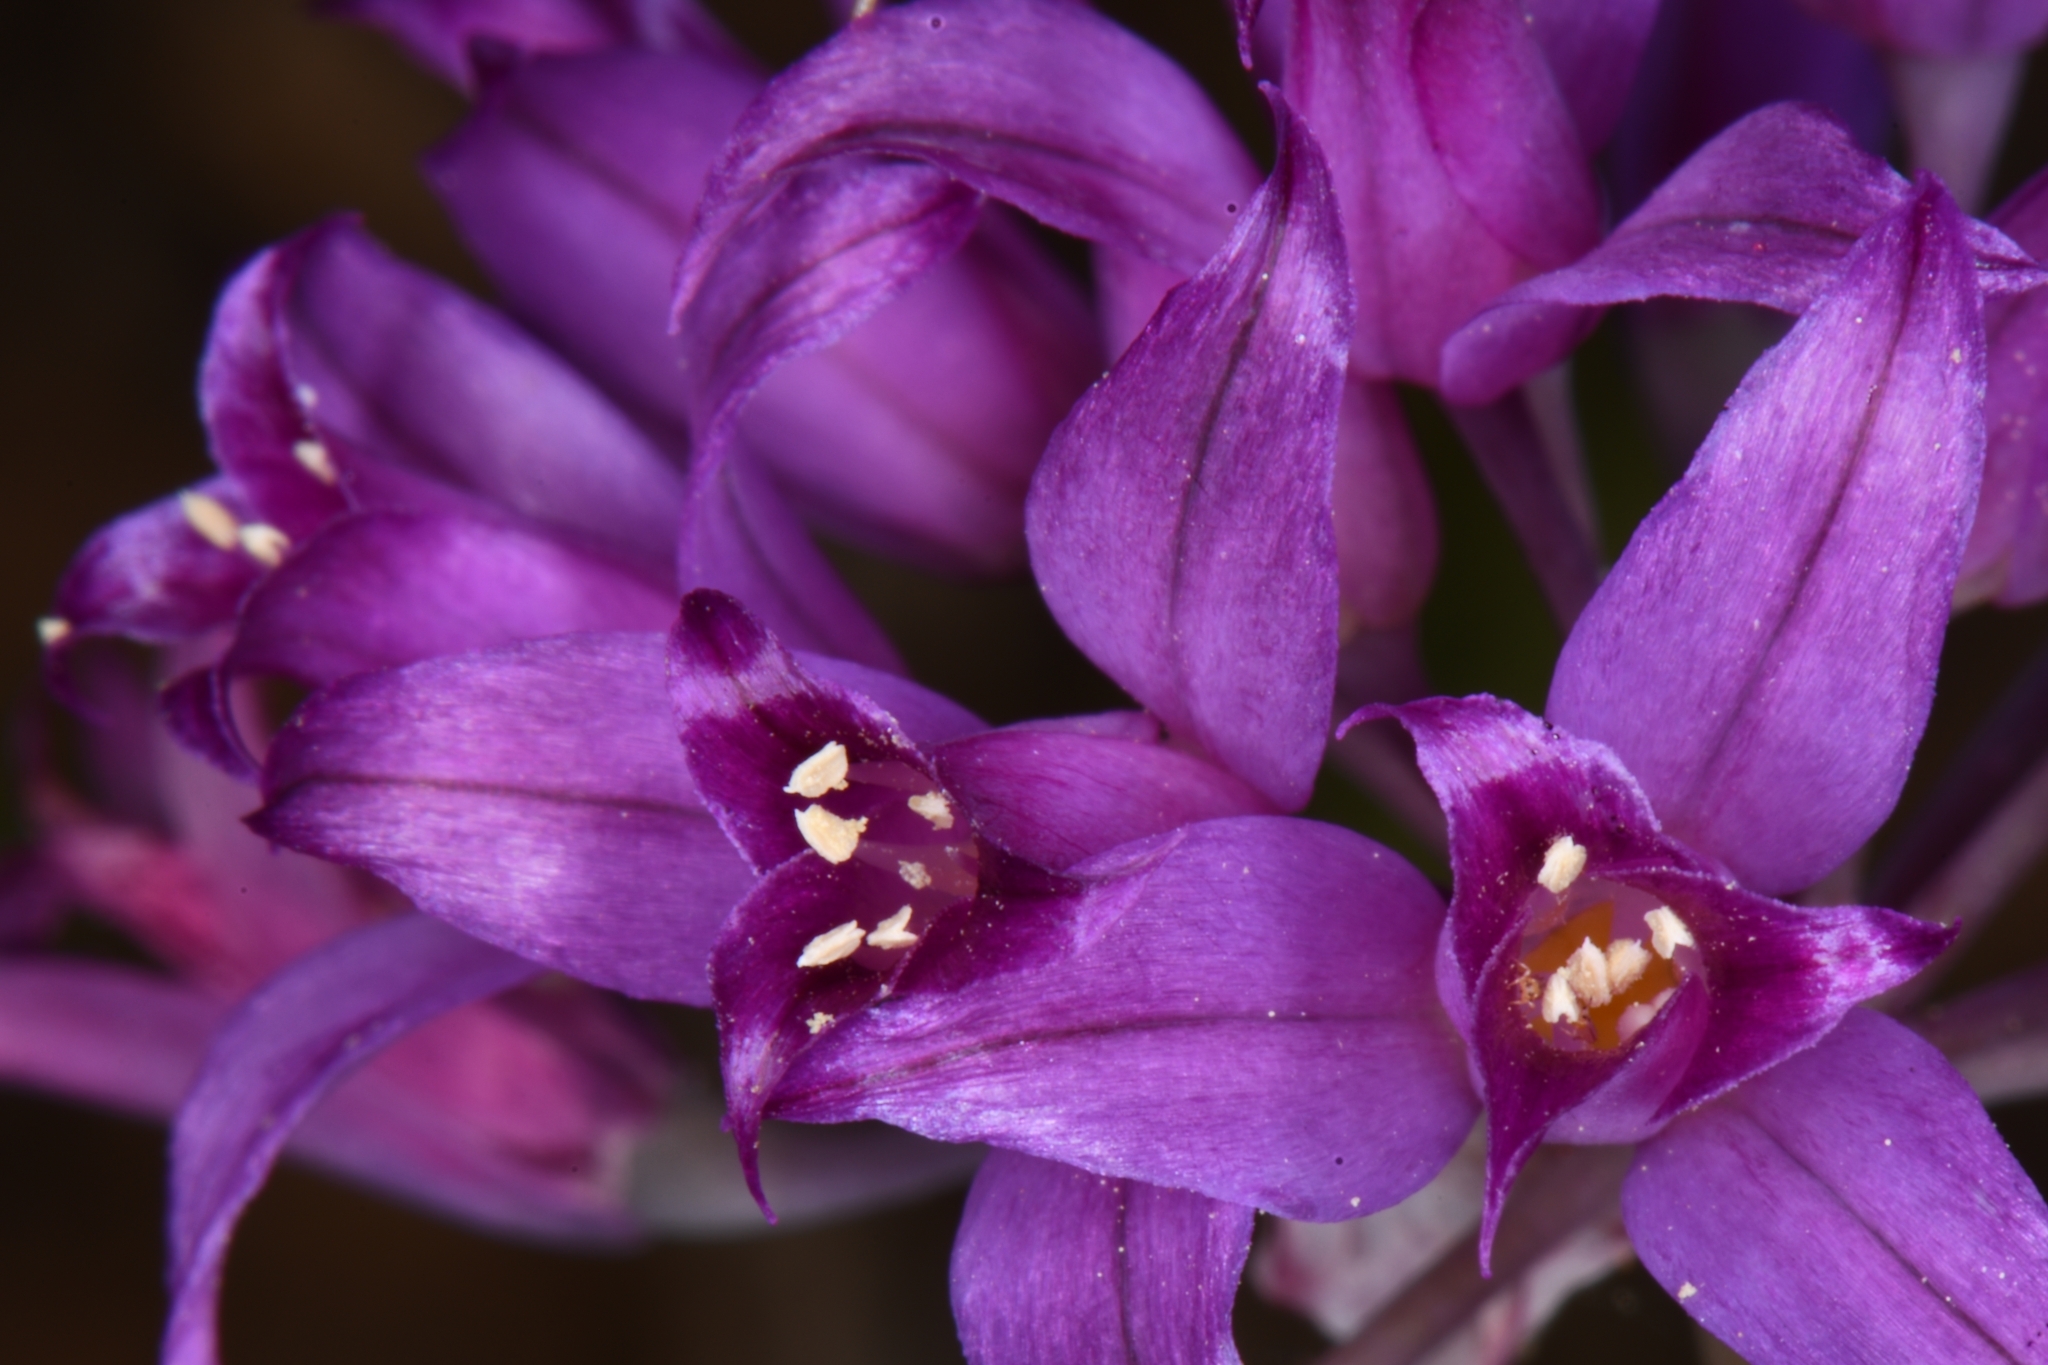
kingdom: Plantae
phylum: Tracheophyta
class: Liliopsida
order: Asparagales
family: Amaryllidaceae
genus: Allium
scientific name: Allium acuminatum
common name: Hooker's onion
